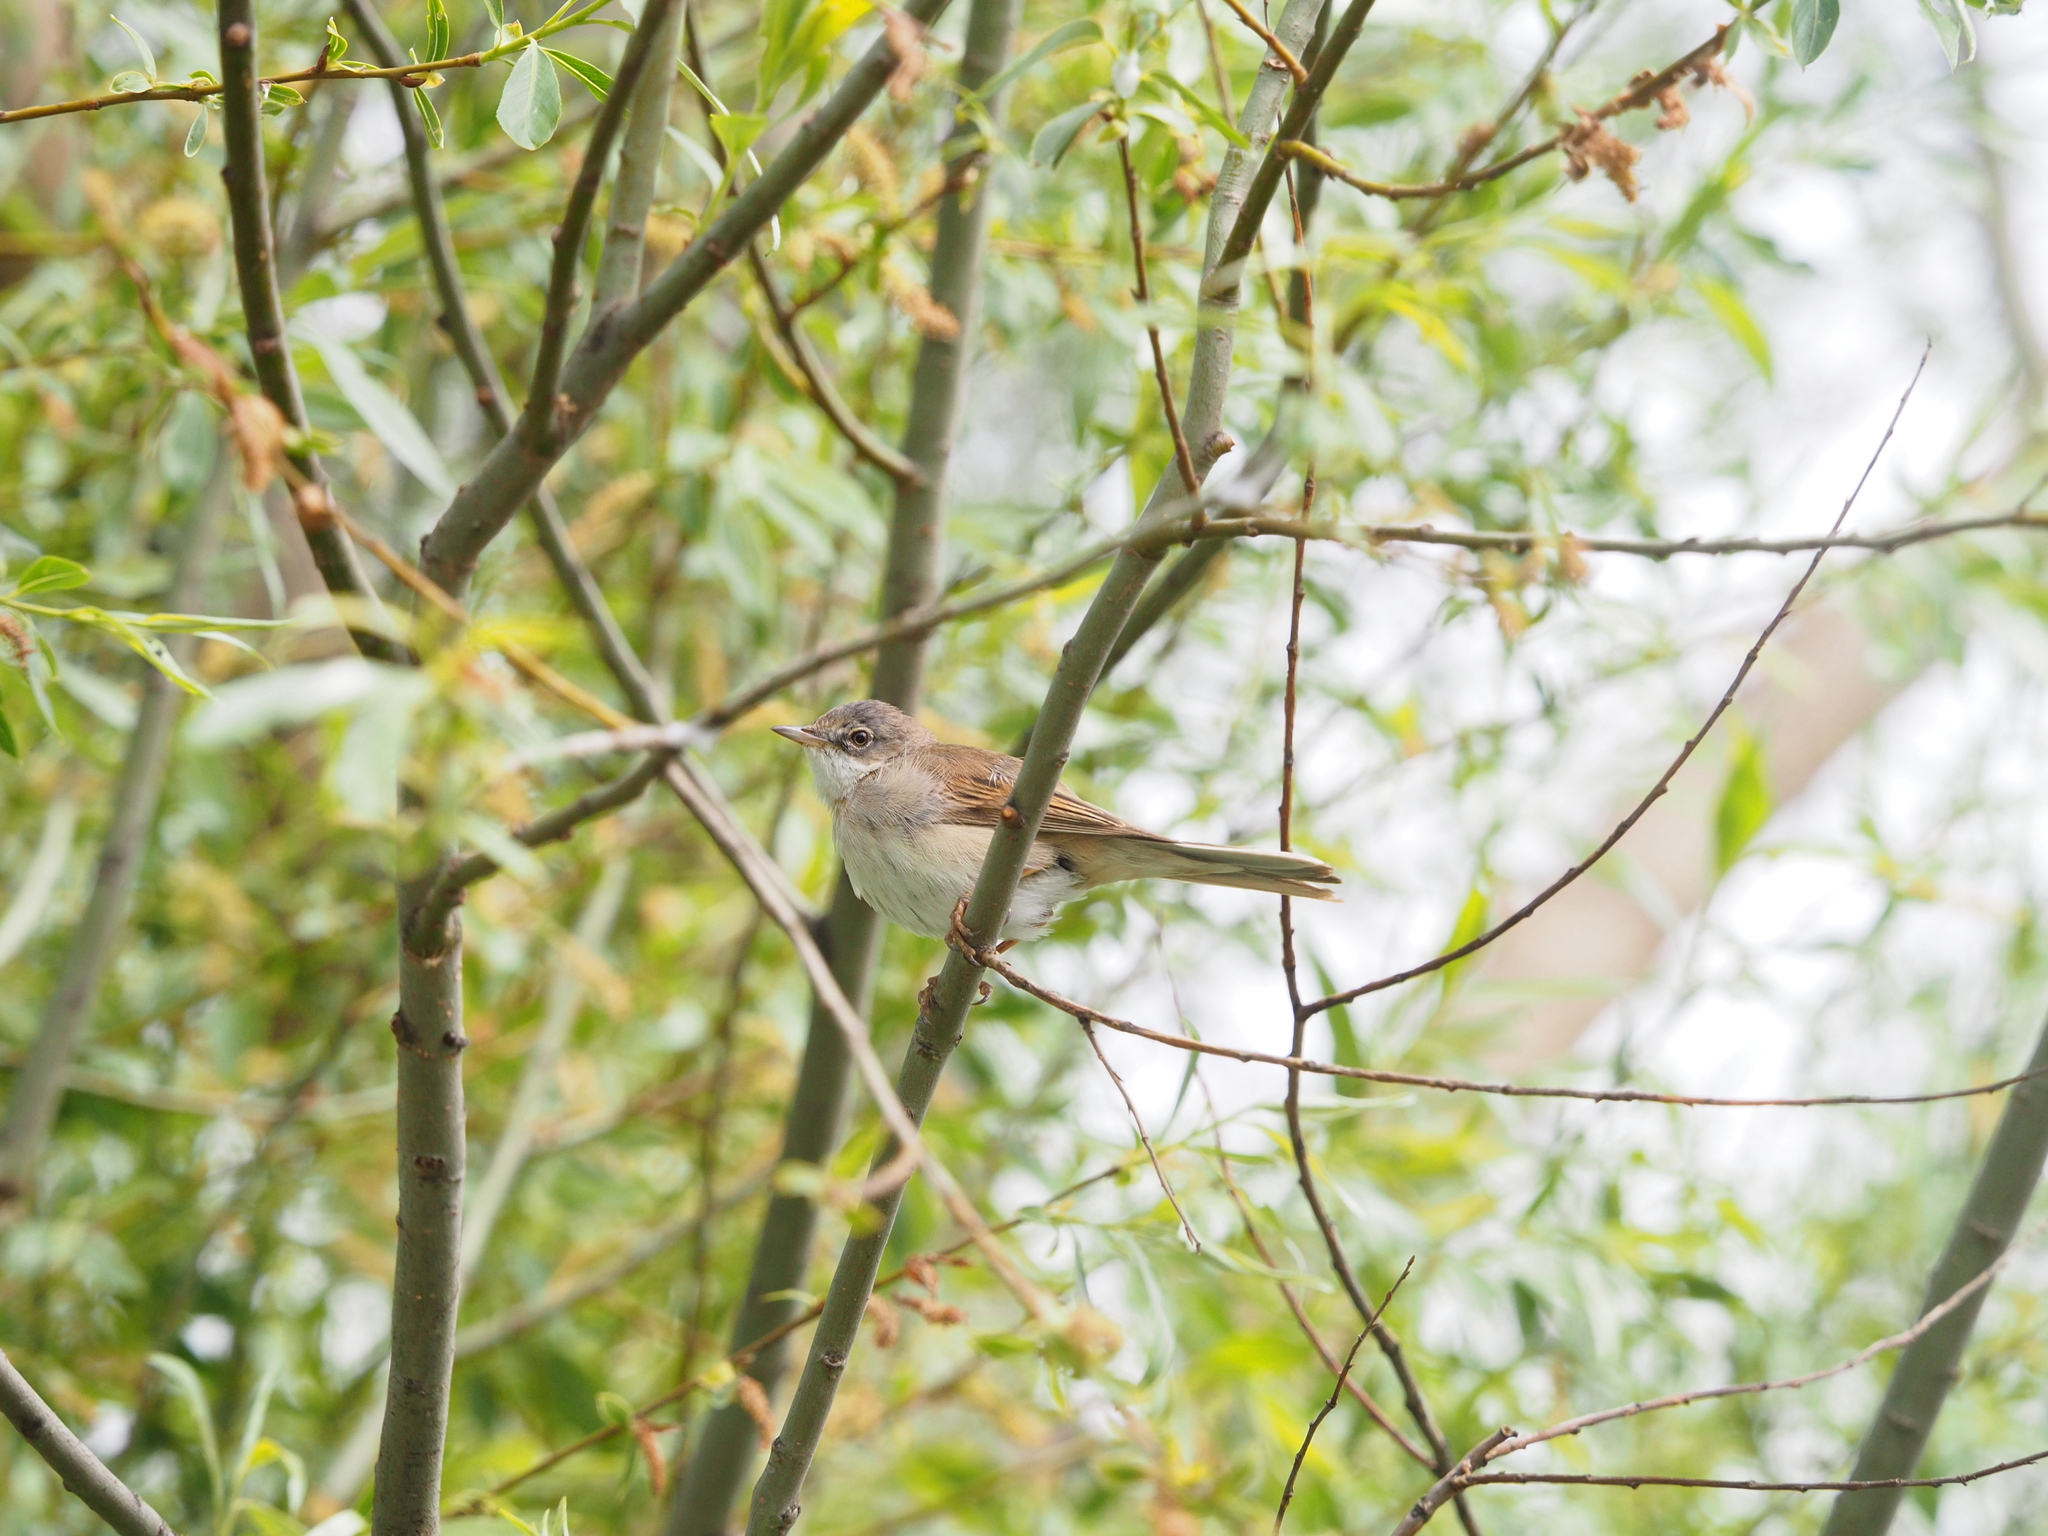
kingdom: Animalia
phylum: Chordata
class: Aves
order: Passeriformes
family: Sylviidae
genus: Sylvia
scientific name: Sylvia communis
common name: Common whitethroat
